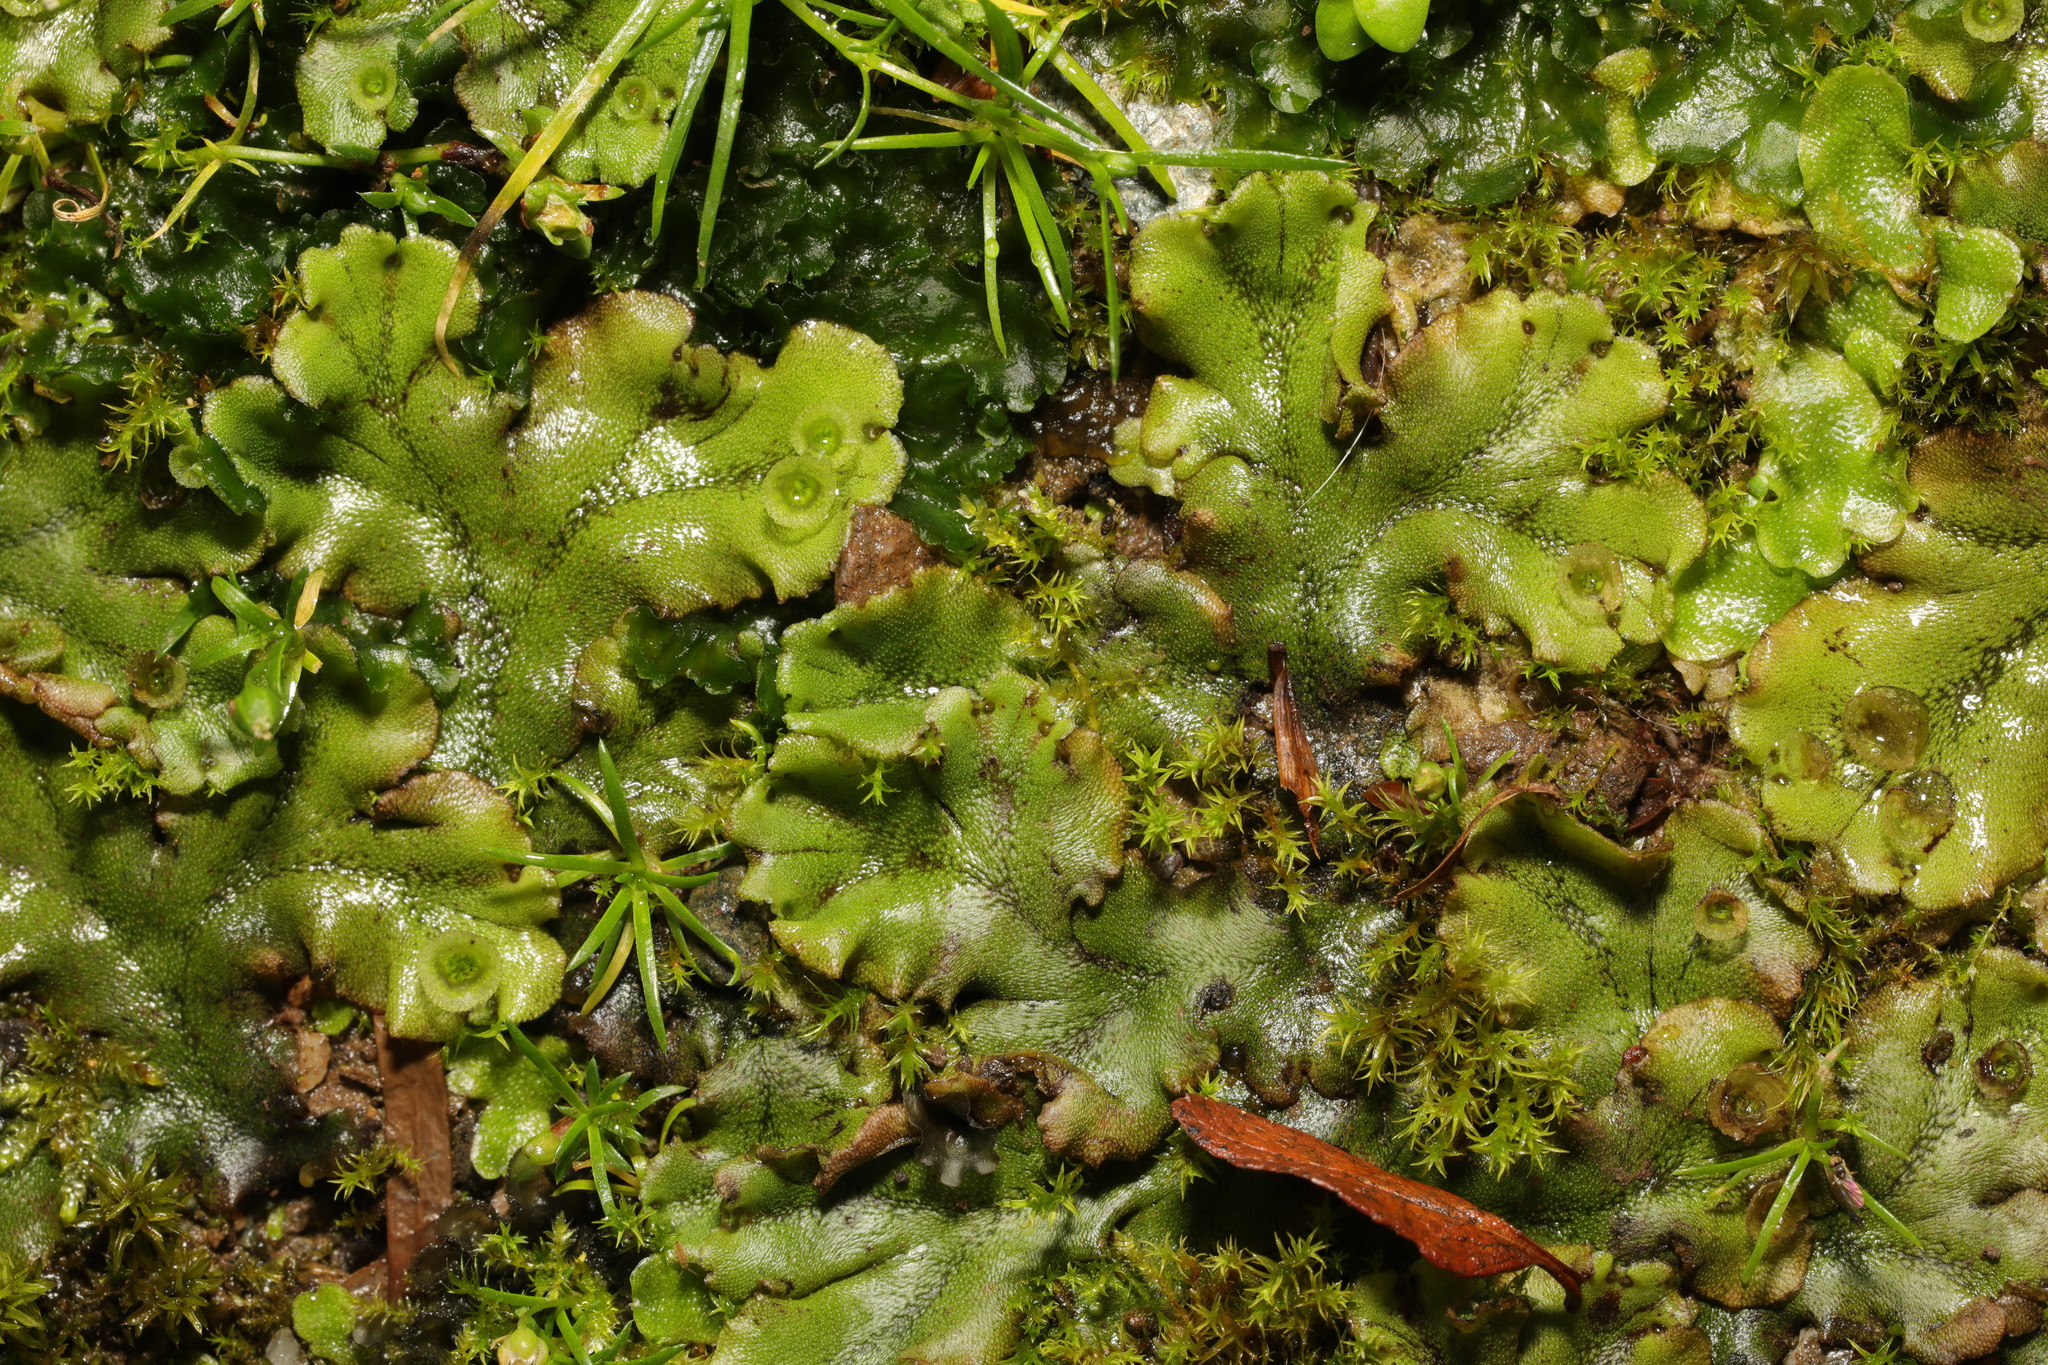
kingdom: Plantae
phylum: Marchantiophyta
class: Marchantiopsida
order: Marchantiales
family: Marchantiaceae
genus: Marchantia
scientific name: Marchantia polymorpha
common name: Common liverwort
